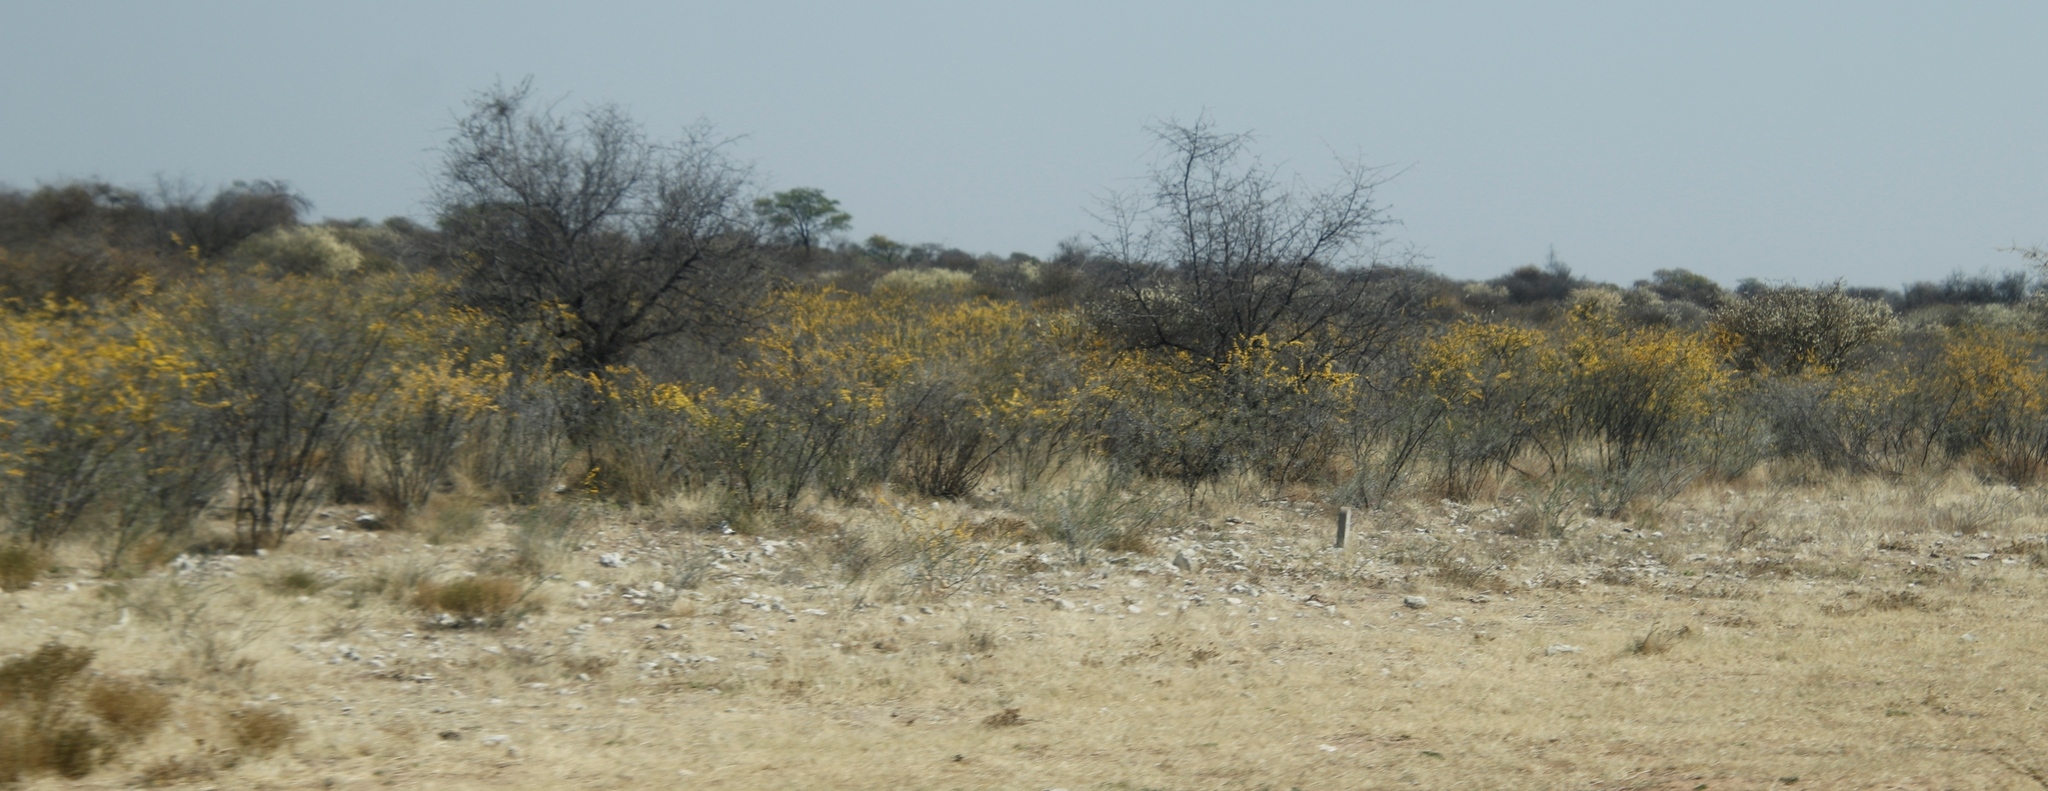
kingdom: Plantae
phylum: Tracheophyta
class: Magnoliopsida
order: Lamiales
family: Bignoniaceae
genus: Rhigozum
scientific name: Rhigozum brevispinosum
